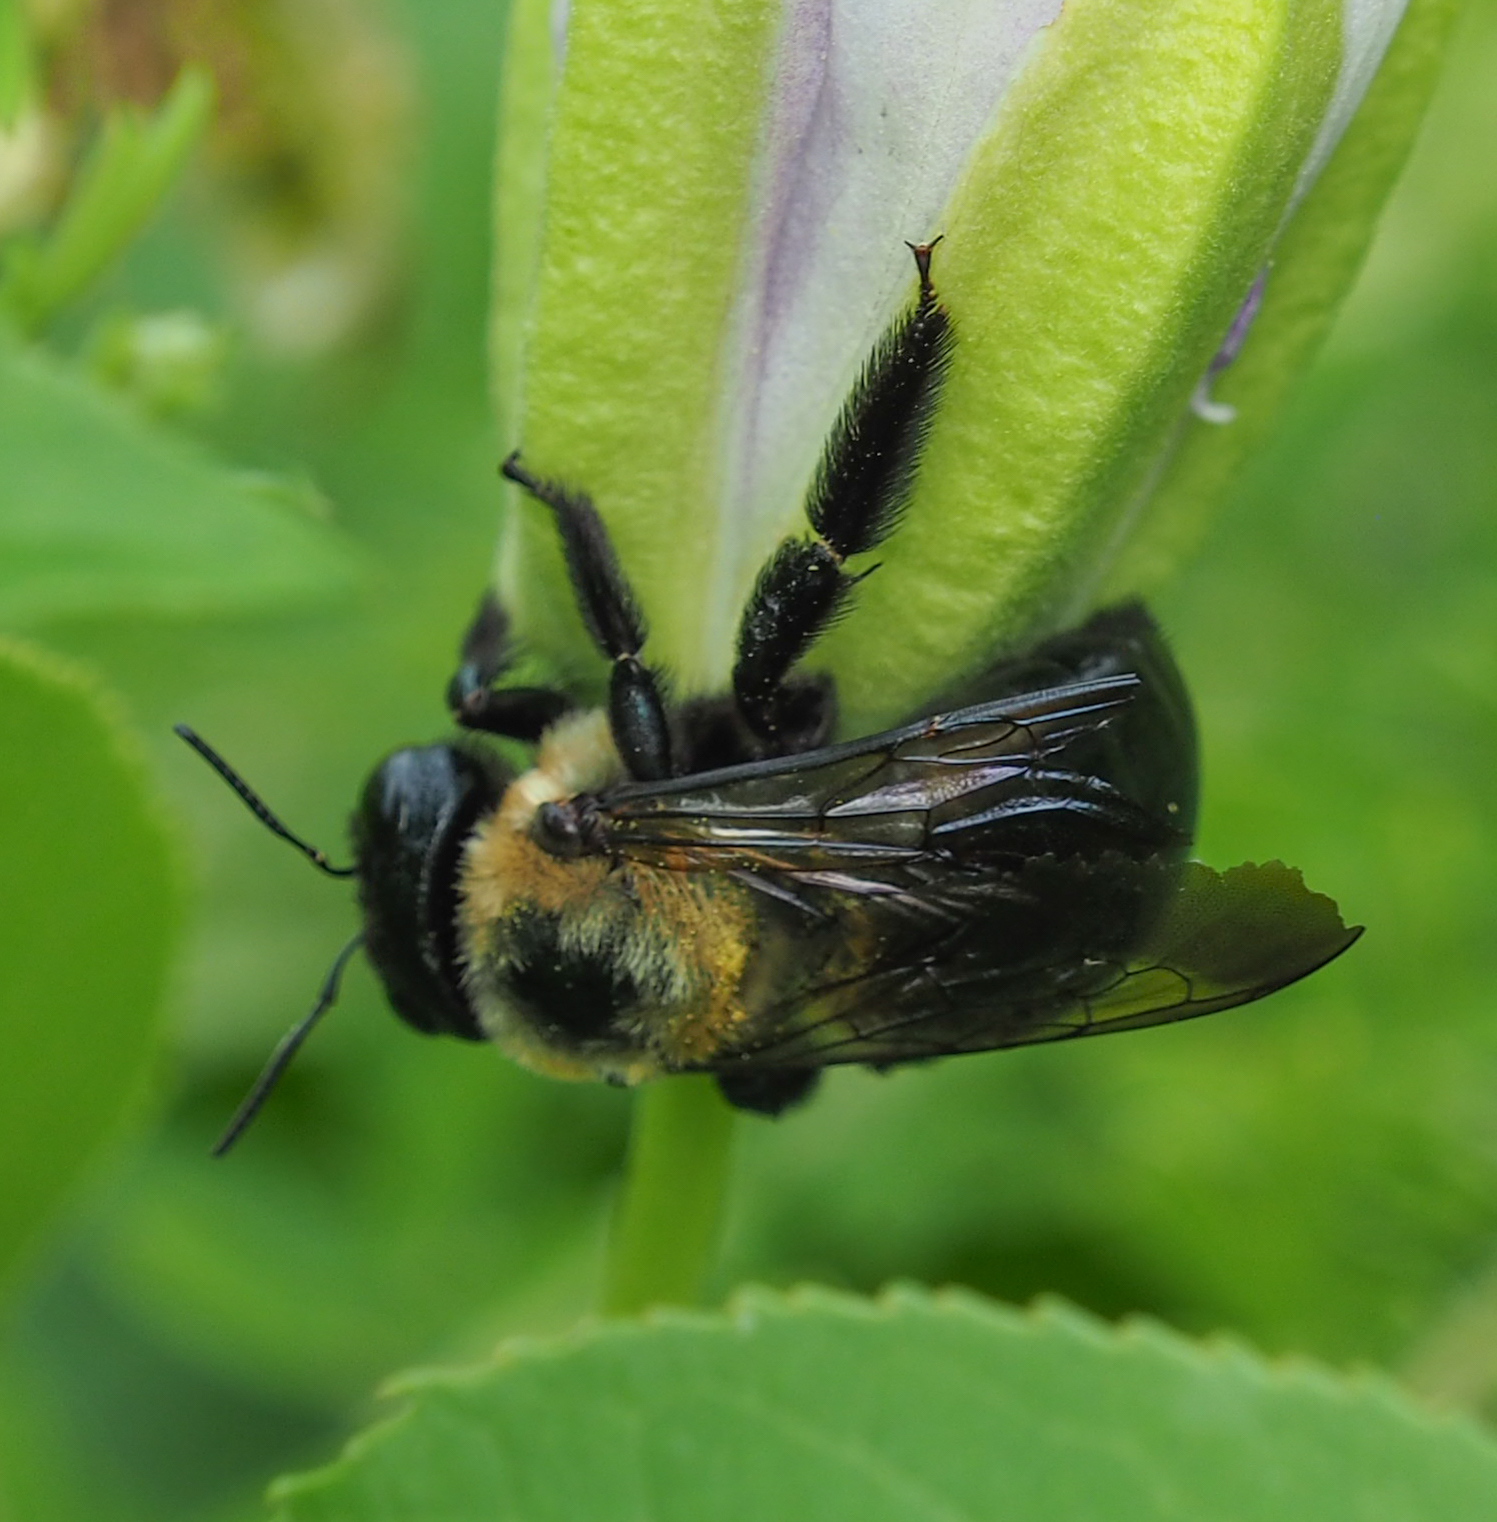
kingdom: Animalia
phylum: Arthropoda
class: Insecta
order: Hymenoptera
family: Apidae
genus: Xylocopa
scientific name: Xylocopa virginica
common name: Carpenter bee
